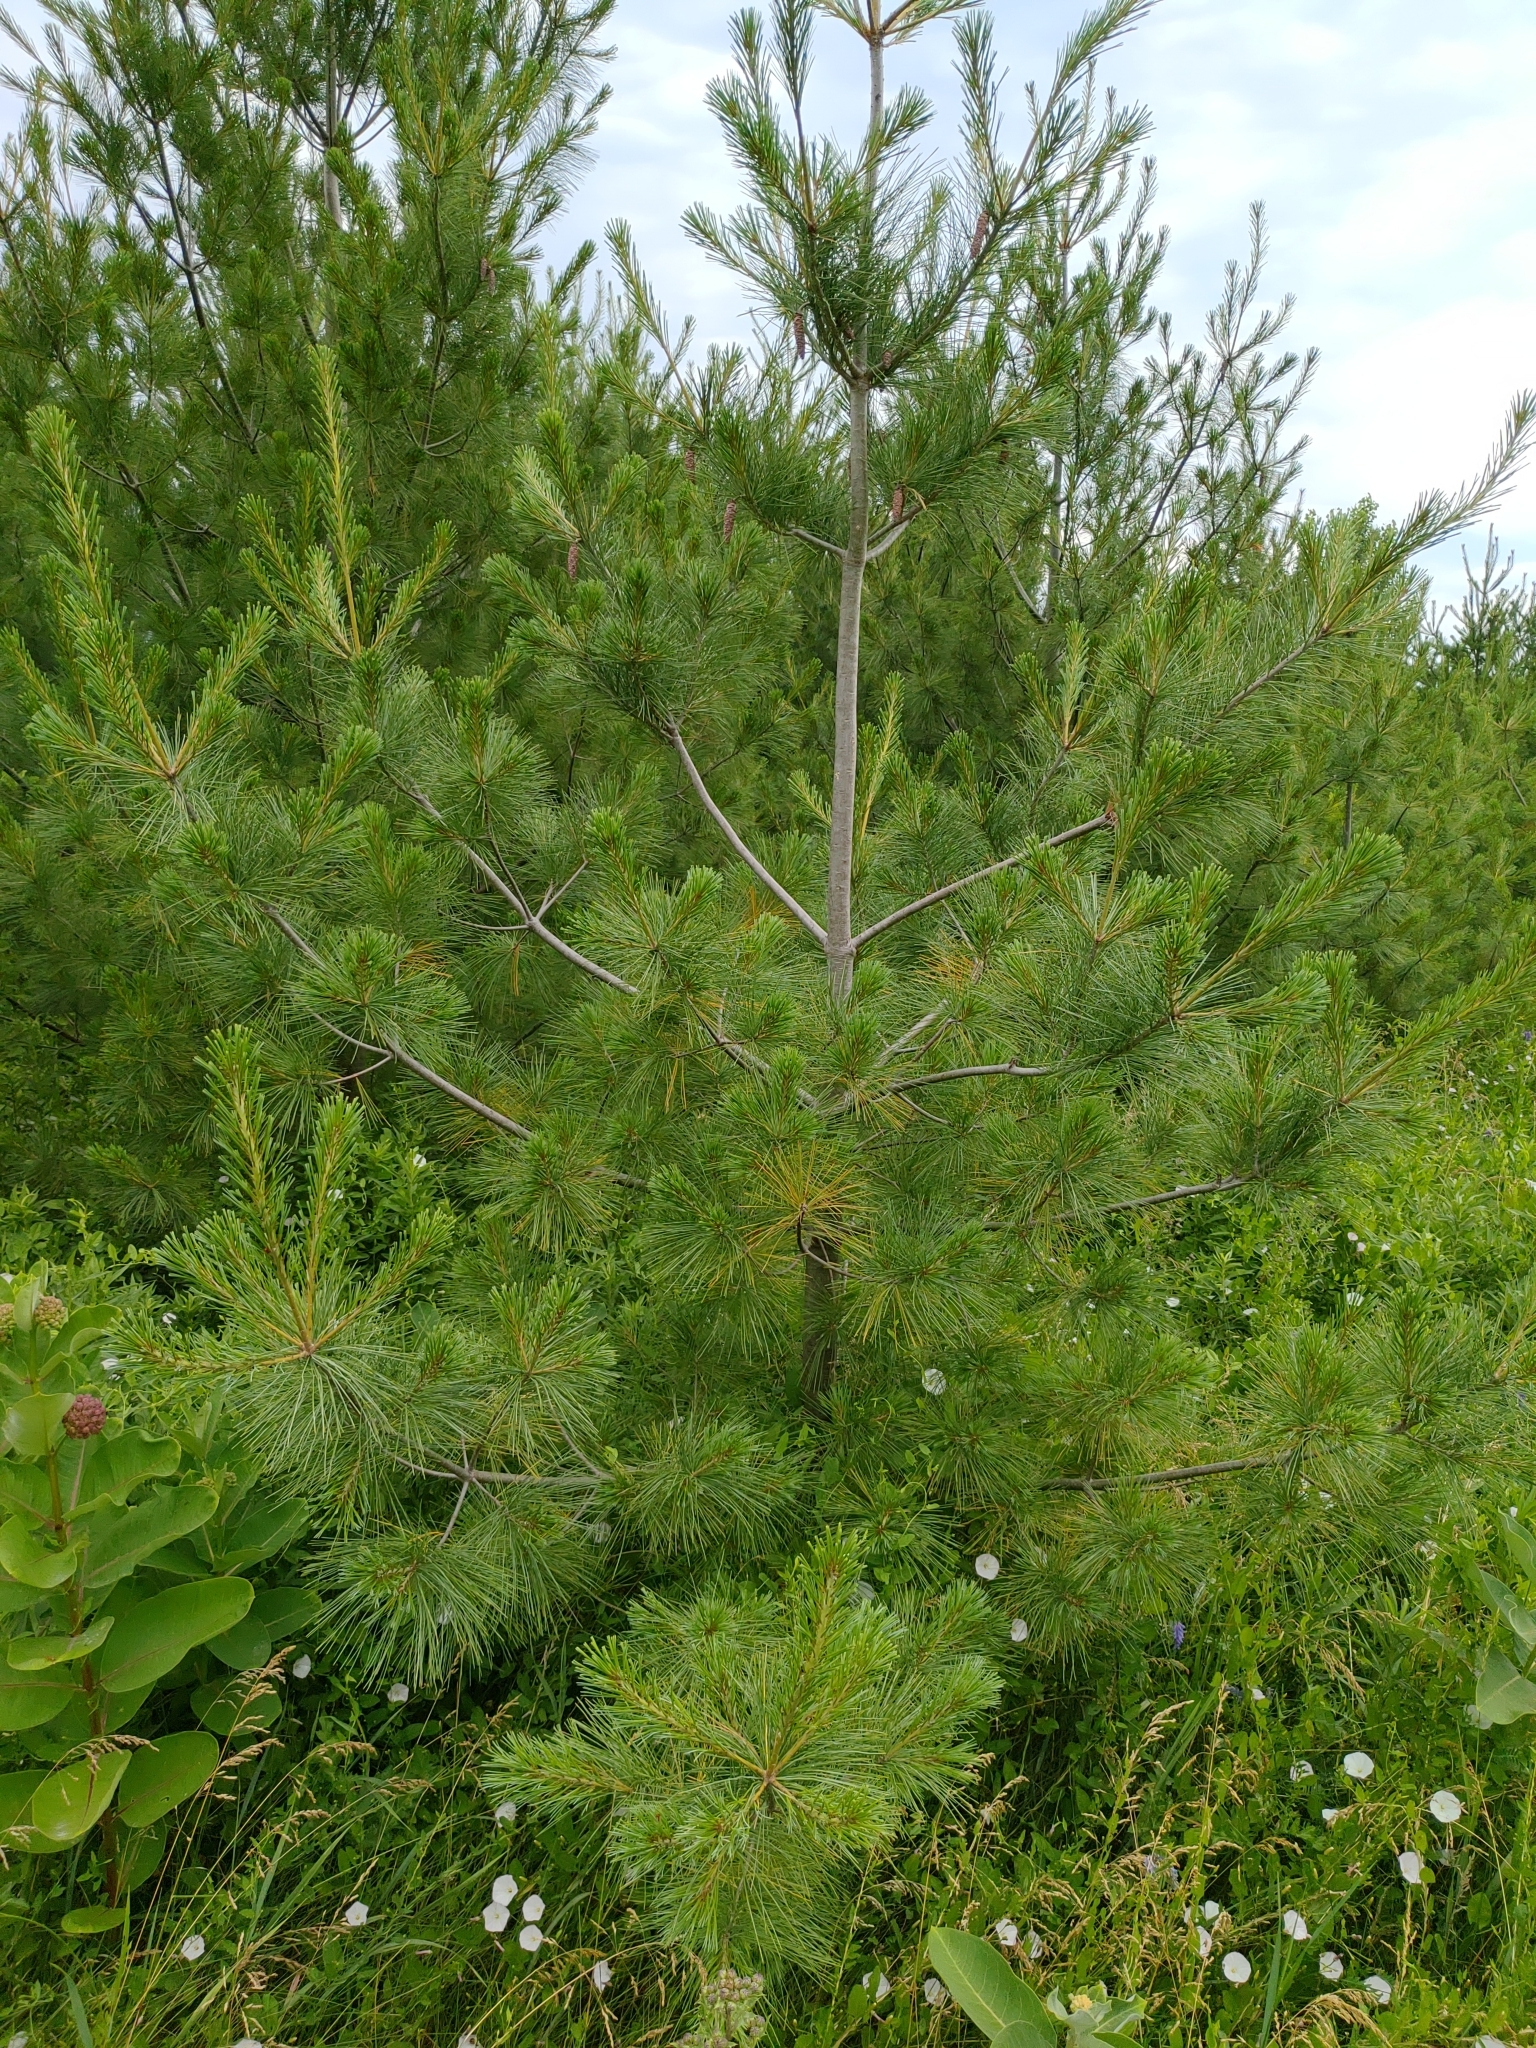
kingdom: Plantae
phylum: Tracheophyta
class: Pinopsida
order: Pinales
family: Pinaceae
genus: Pinus
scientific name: Pinus strobus
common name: Weymouth pine
